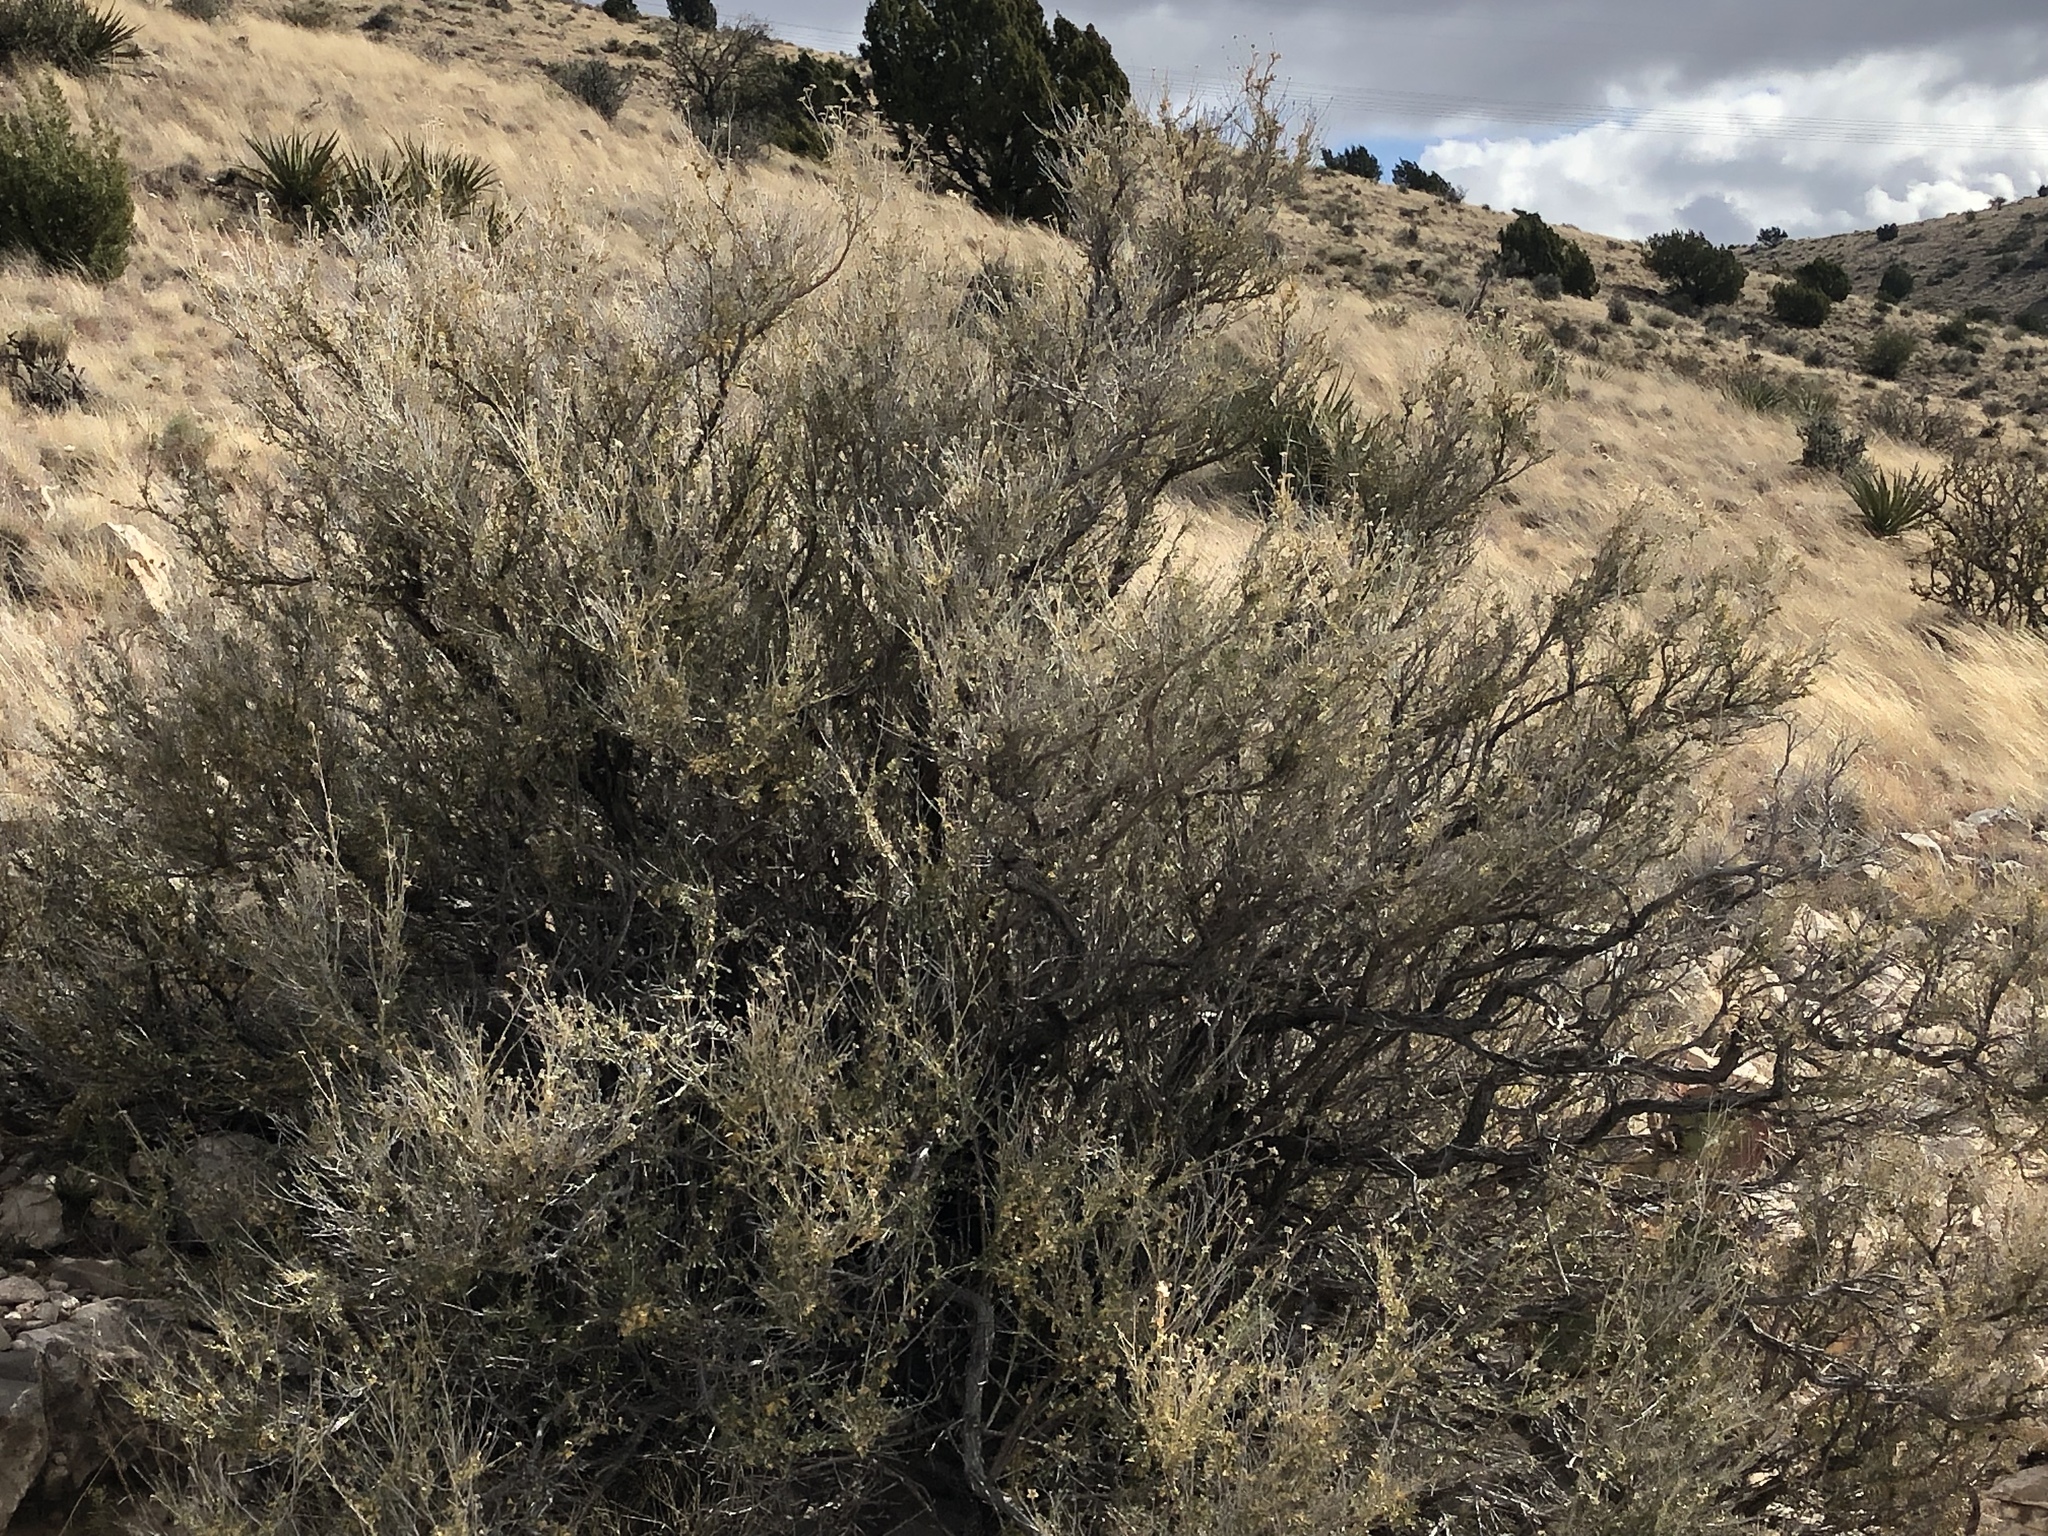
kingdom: Plantae
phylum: Tracheophyta
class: Magnoliopsida
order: Rosales
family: Rosaceae
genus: Fallugia
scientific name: Fallugia paradoxa
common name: Apache-plume
